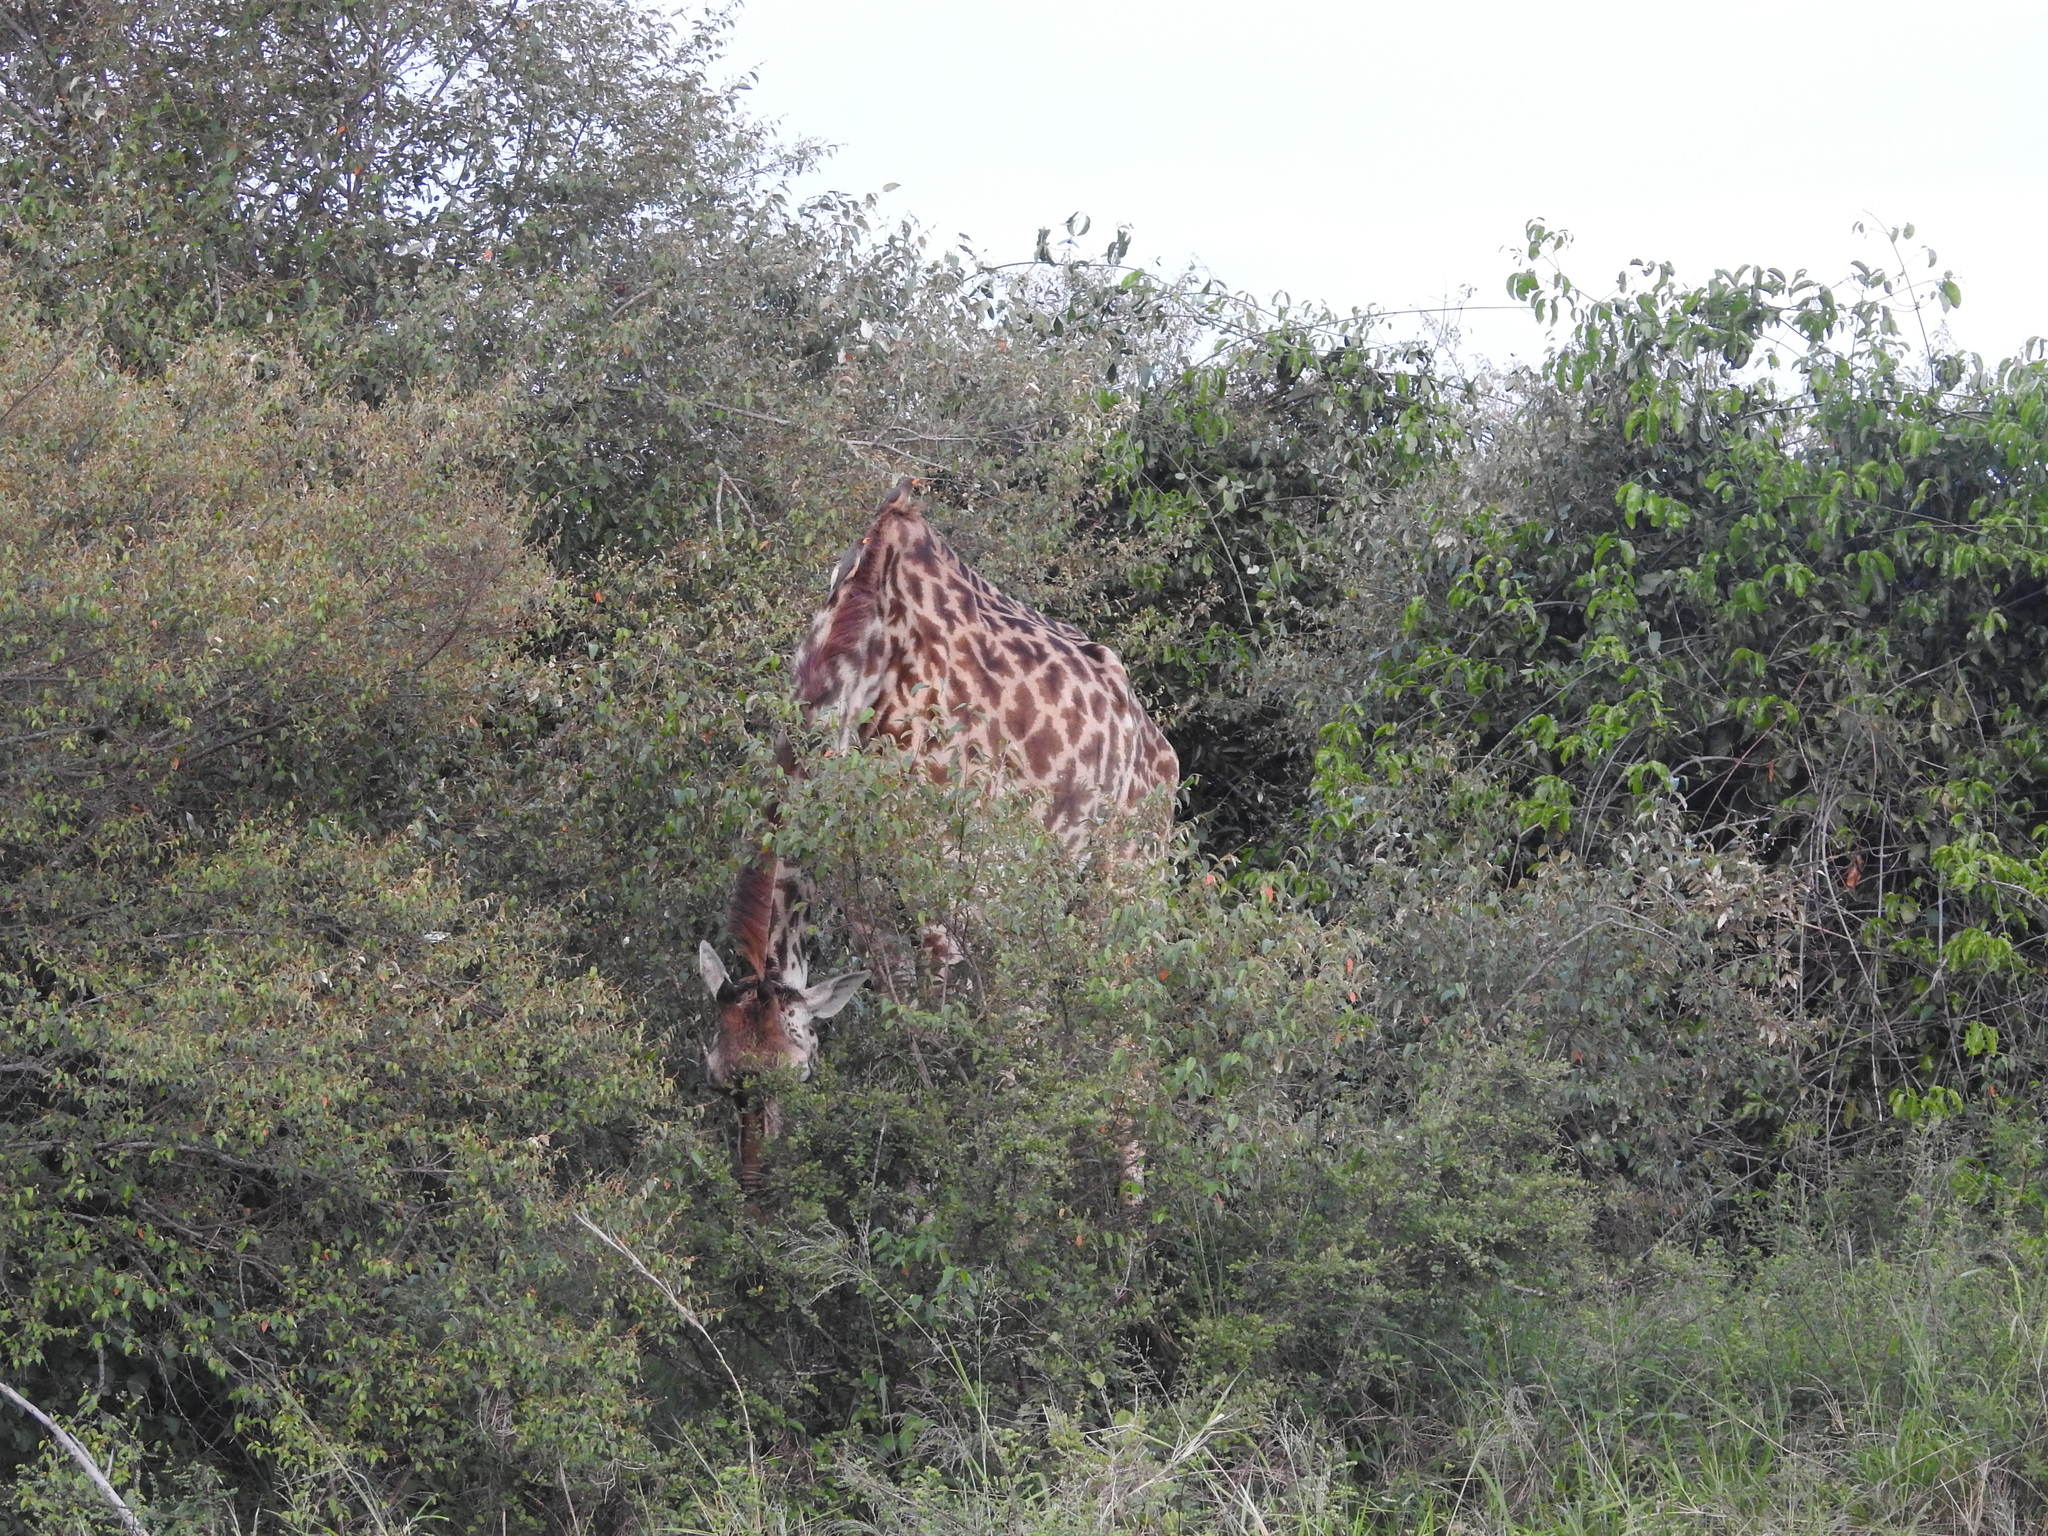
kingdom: Animalia
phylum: Chordata
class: Mammalia
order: Artiodactyla
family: Giraffidae
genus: Giraffa
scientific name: Giraffa tippelskirchi
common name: Masai giraffe
